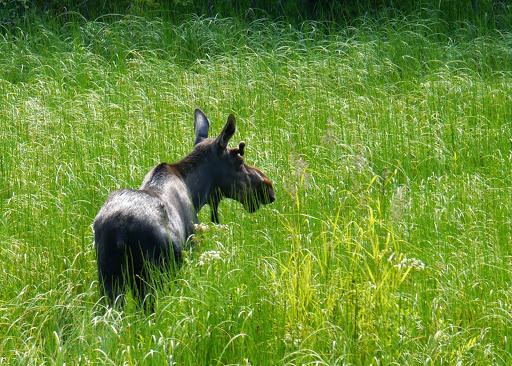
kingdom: Animalia
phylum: Chordata
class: Mammalia
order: Artiodactyla
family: Cervidae
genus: Alces
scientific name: Alces alces
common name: Moose
